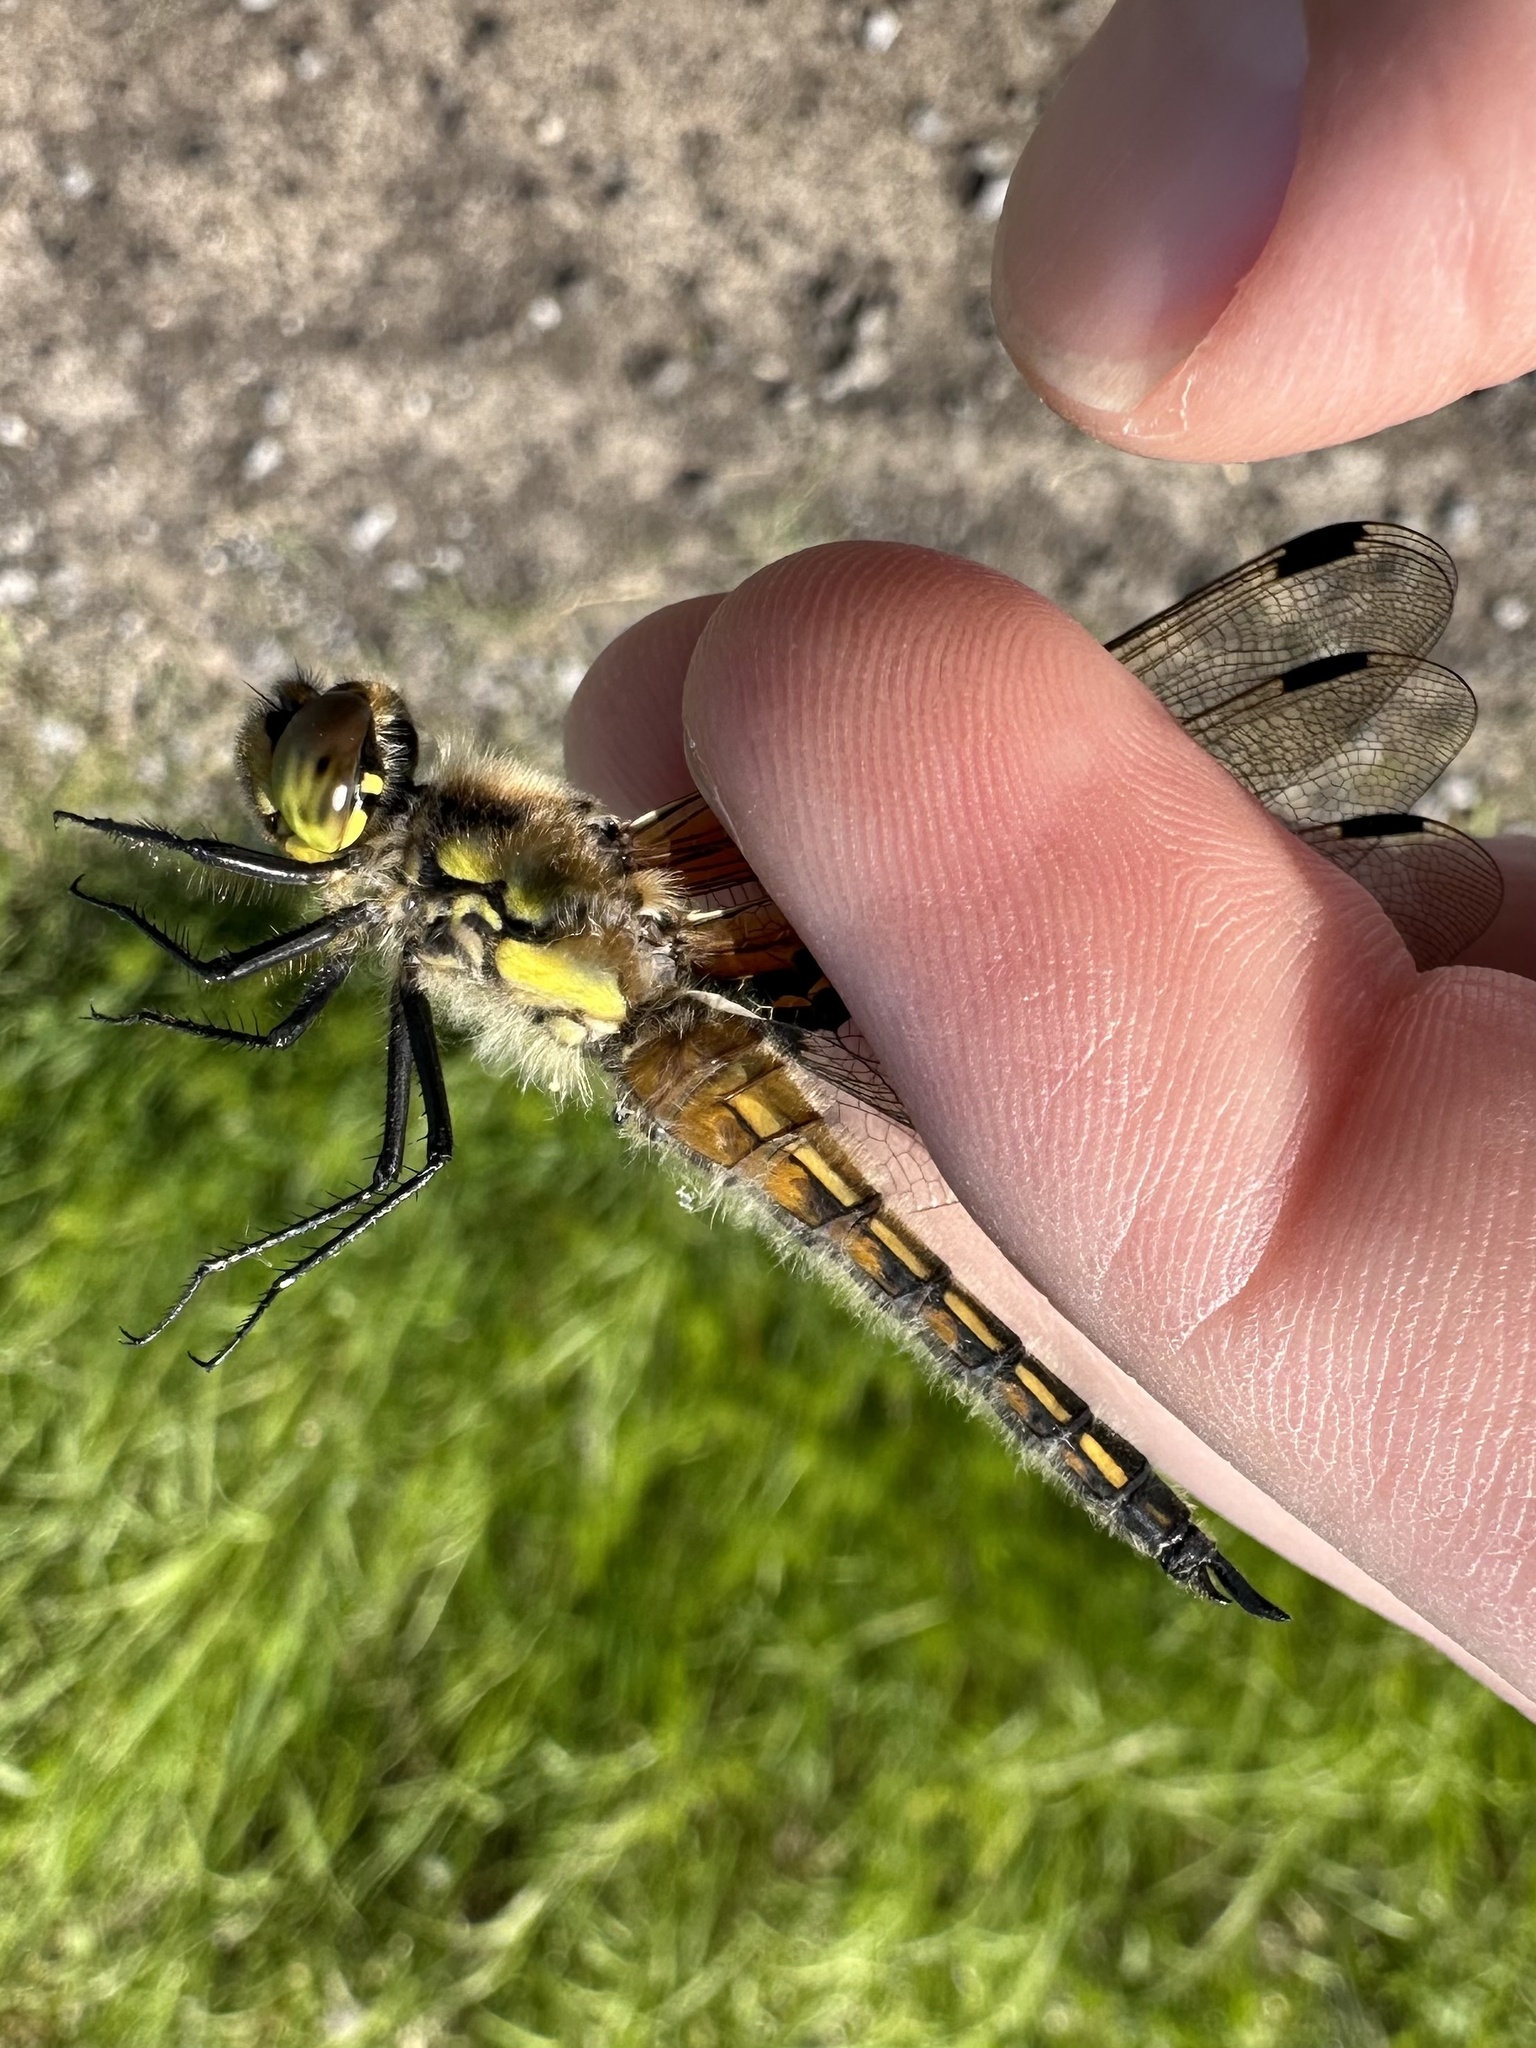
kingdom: Animalia
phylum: Arthropoda
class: Insecta
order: Odonata
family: Libellulidae
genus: Libellula
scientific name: Libellula quadrimaculata
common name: Four-spotted chaser
